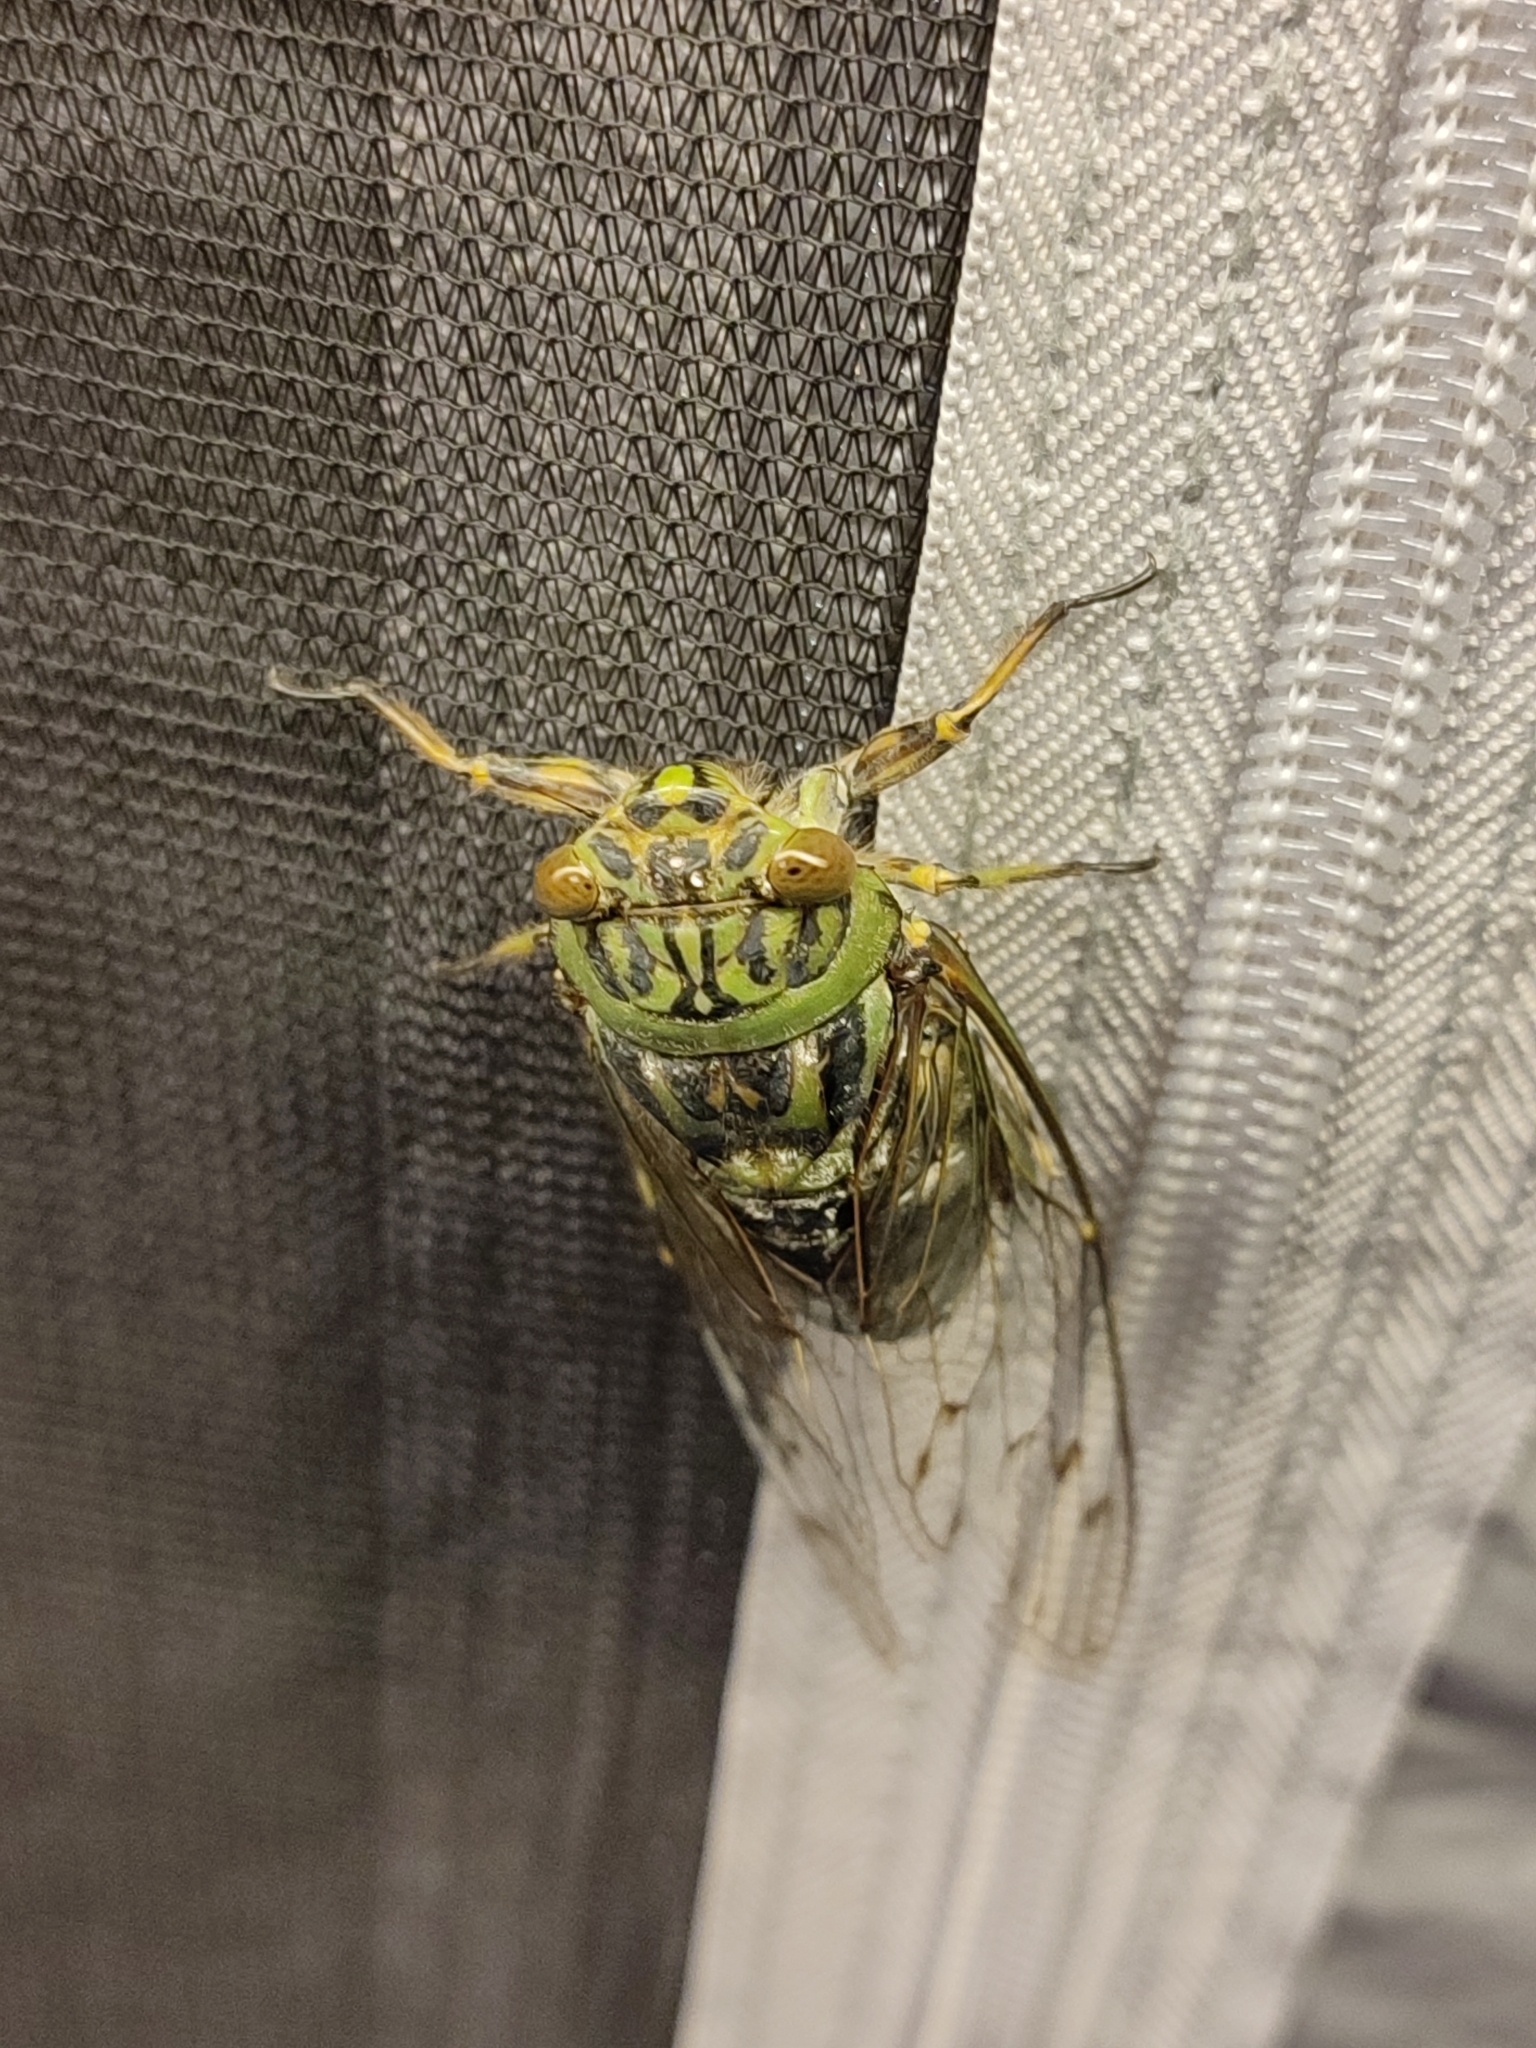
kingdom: Animalia
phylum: Arthropoda
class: Insecta
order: Hemiptera
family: Cicadidae
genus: Macrosemia
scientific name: Macrosemia kareisana
